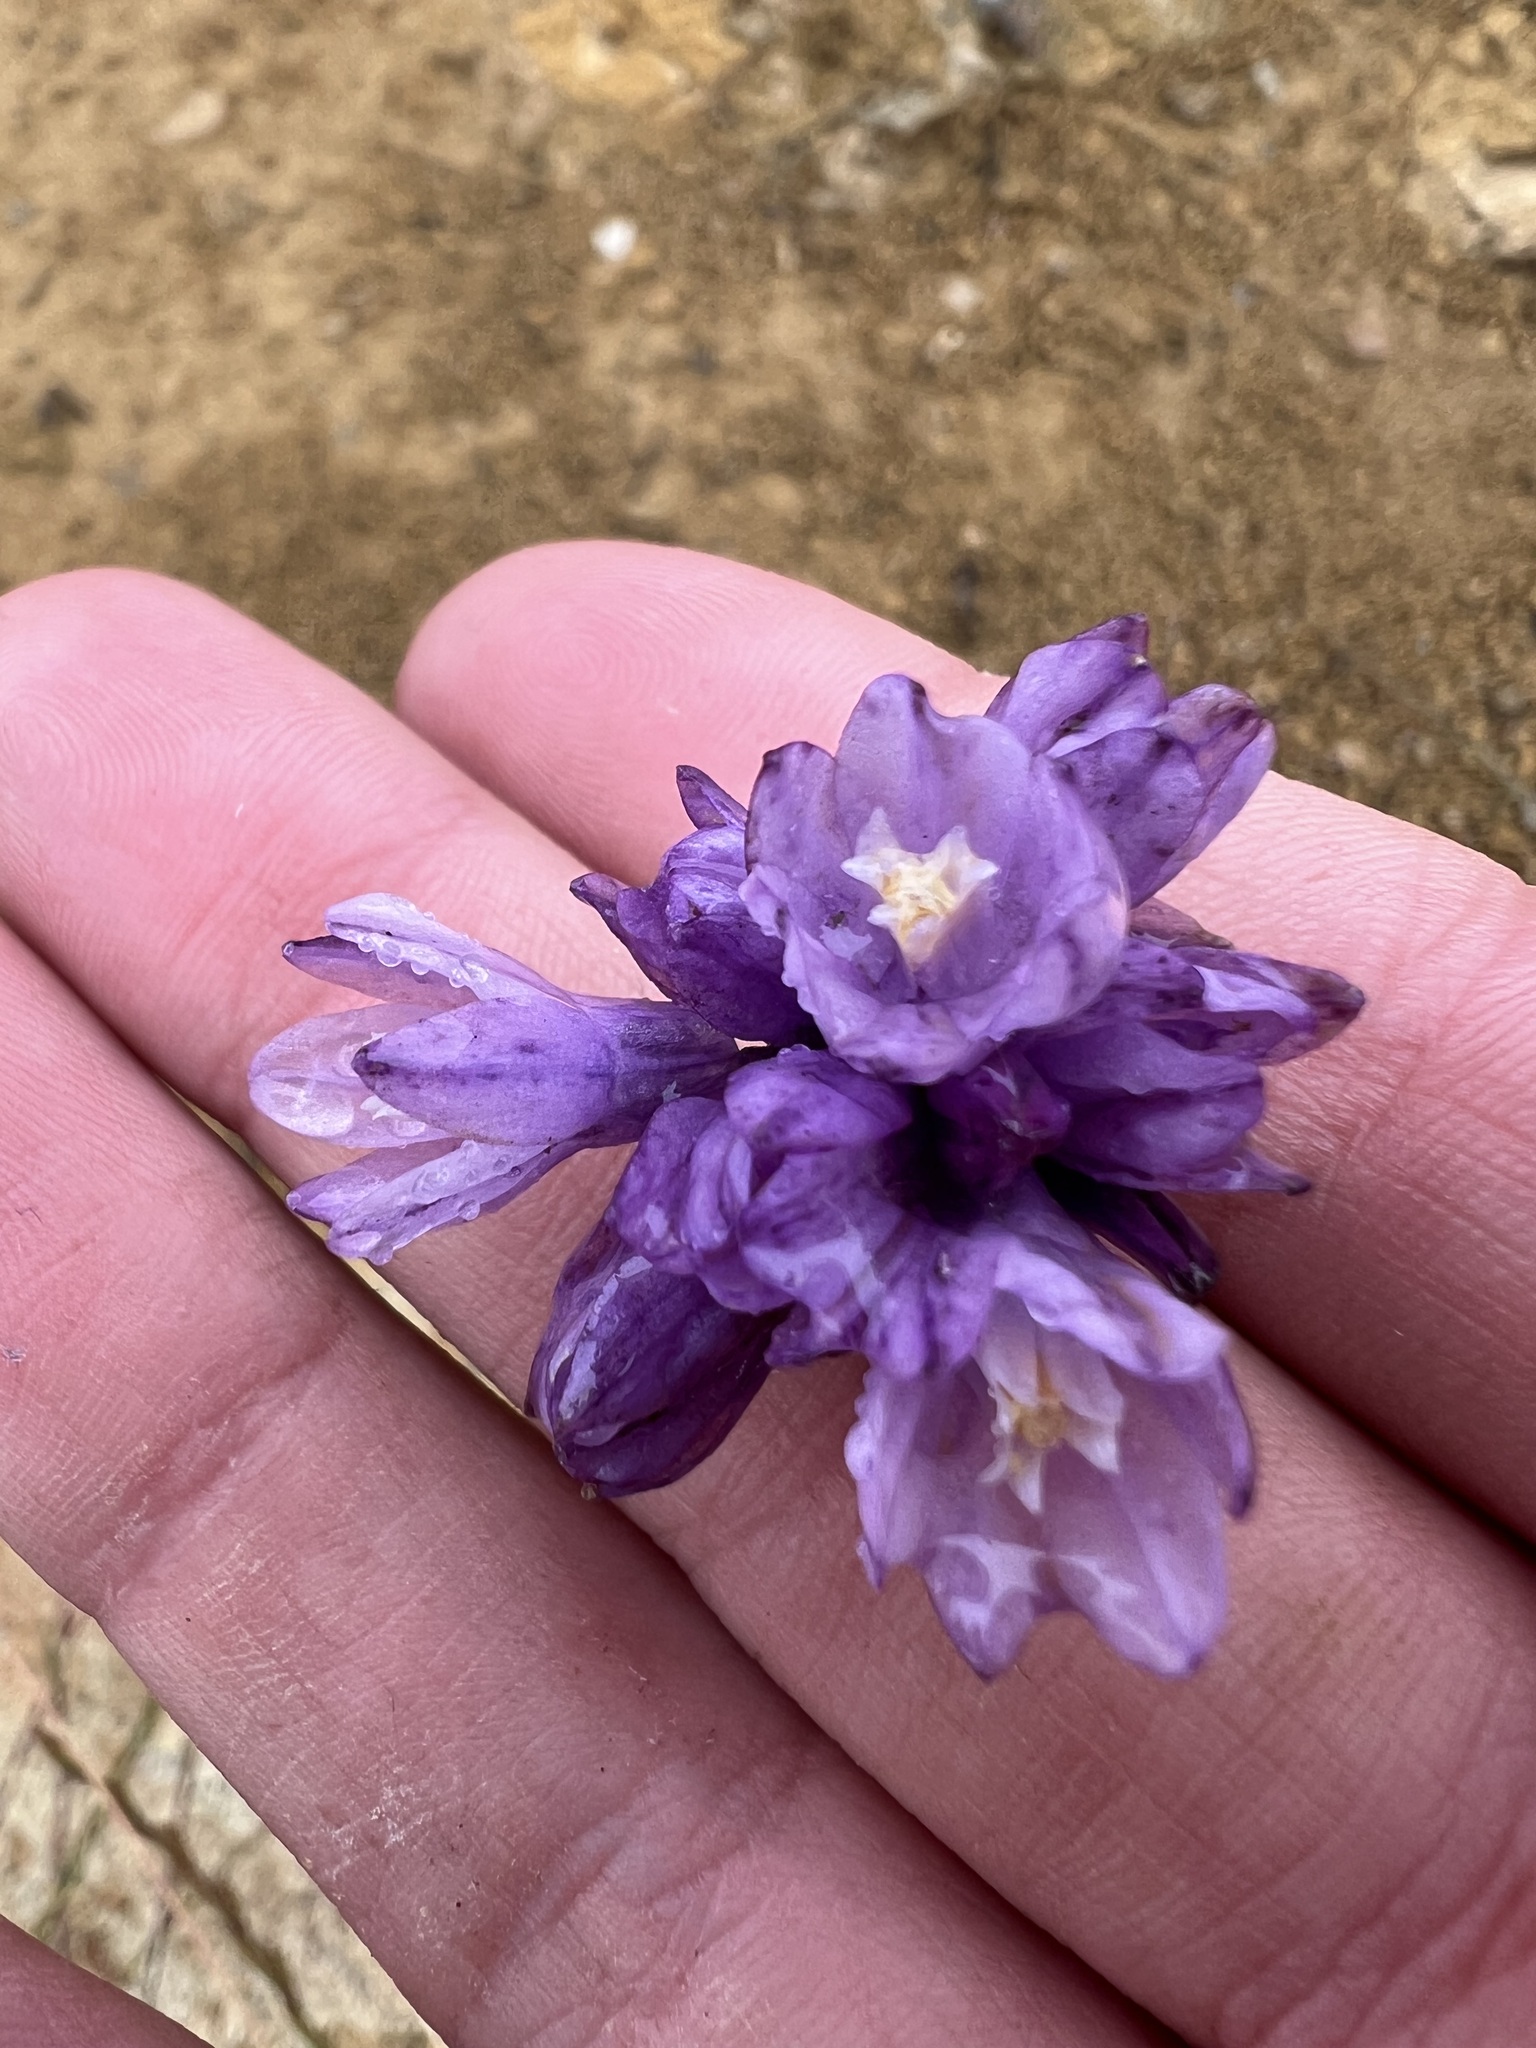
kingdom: Plantae
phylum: Tracheophyta
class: Liliopsida
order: Asparagales
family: Asparagaceae
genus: Dipterostemon
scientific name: Dipterostemon capitatus
